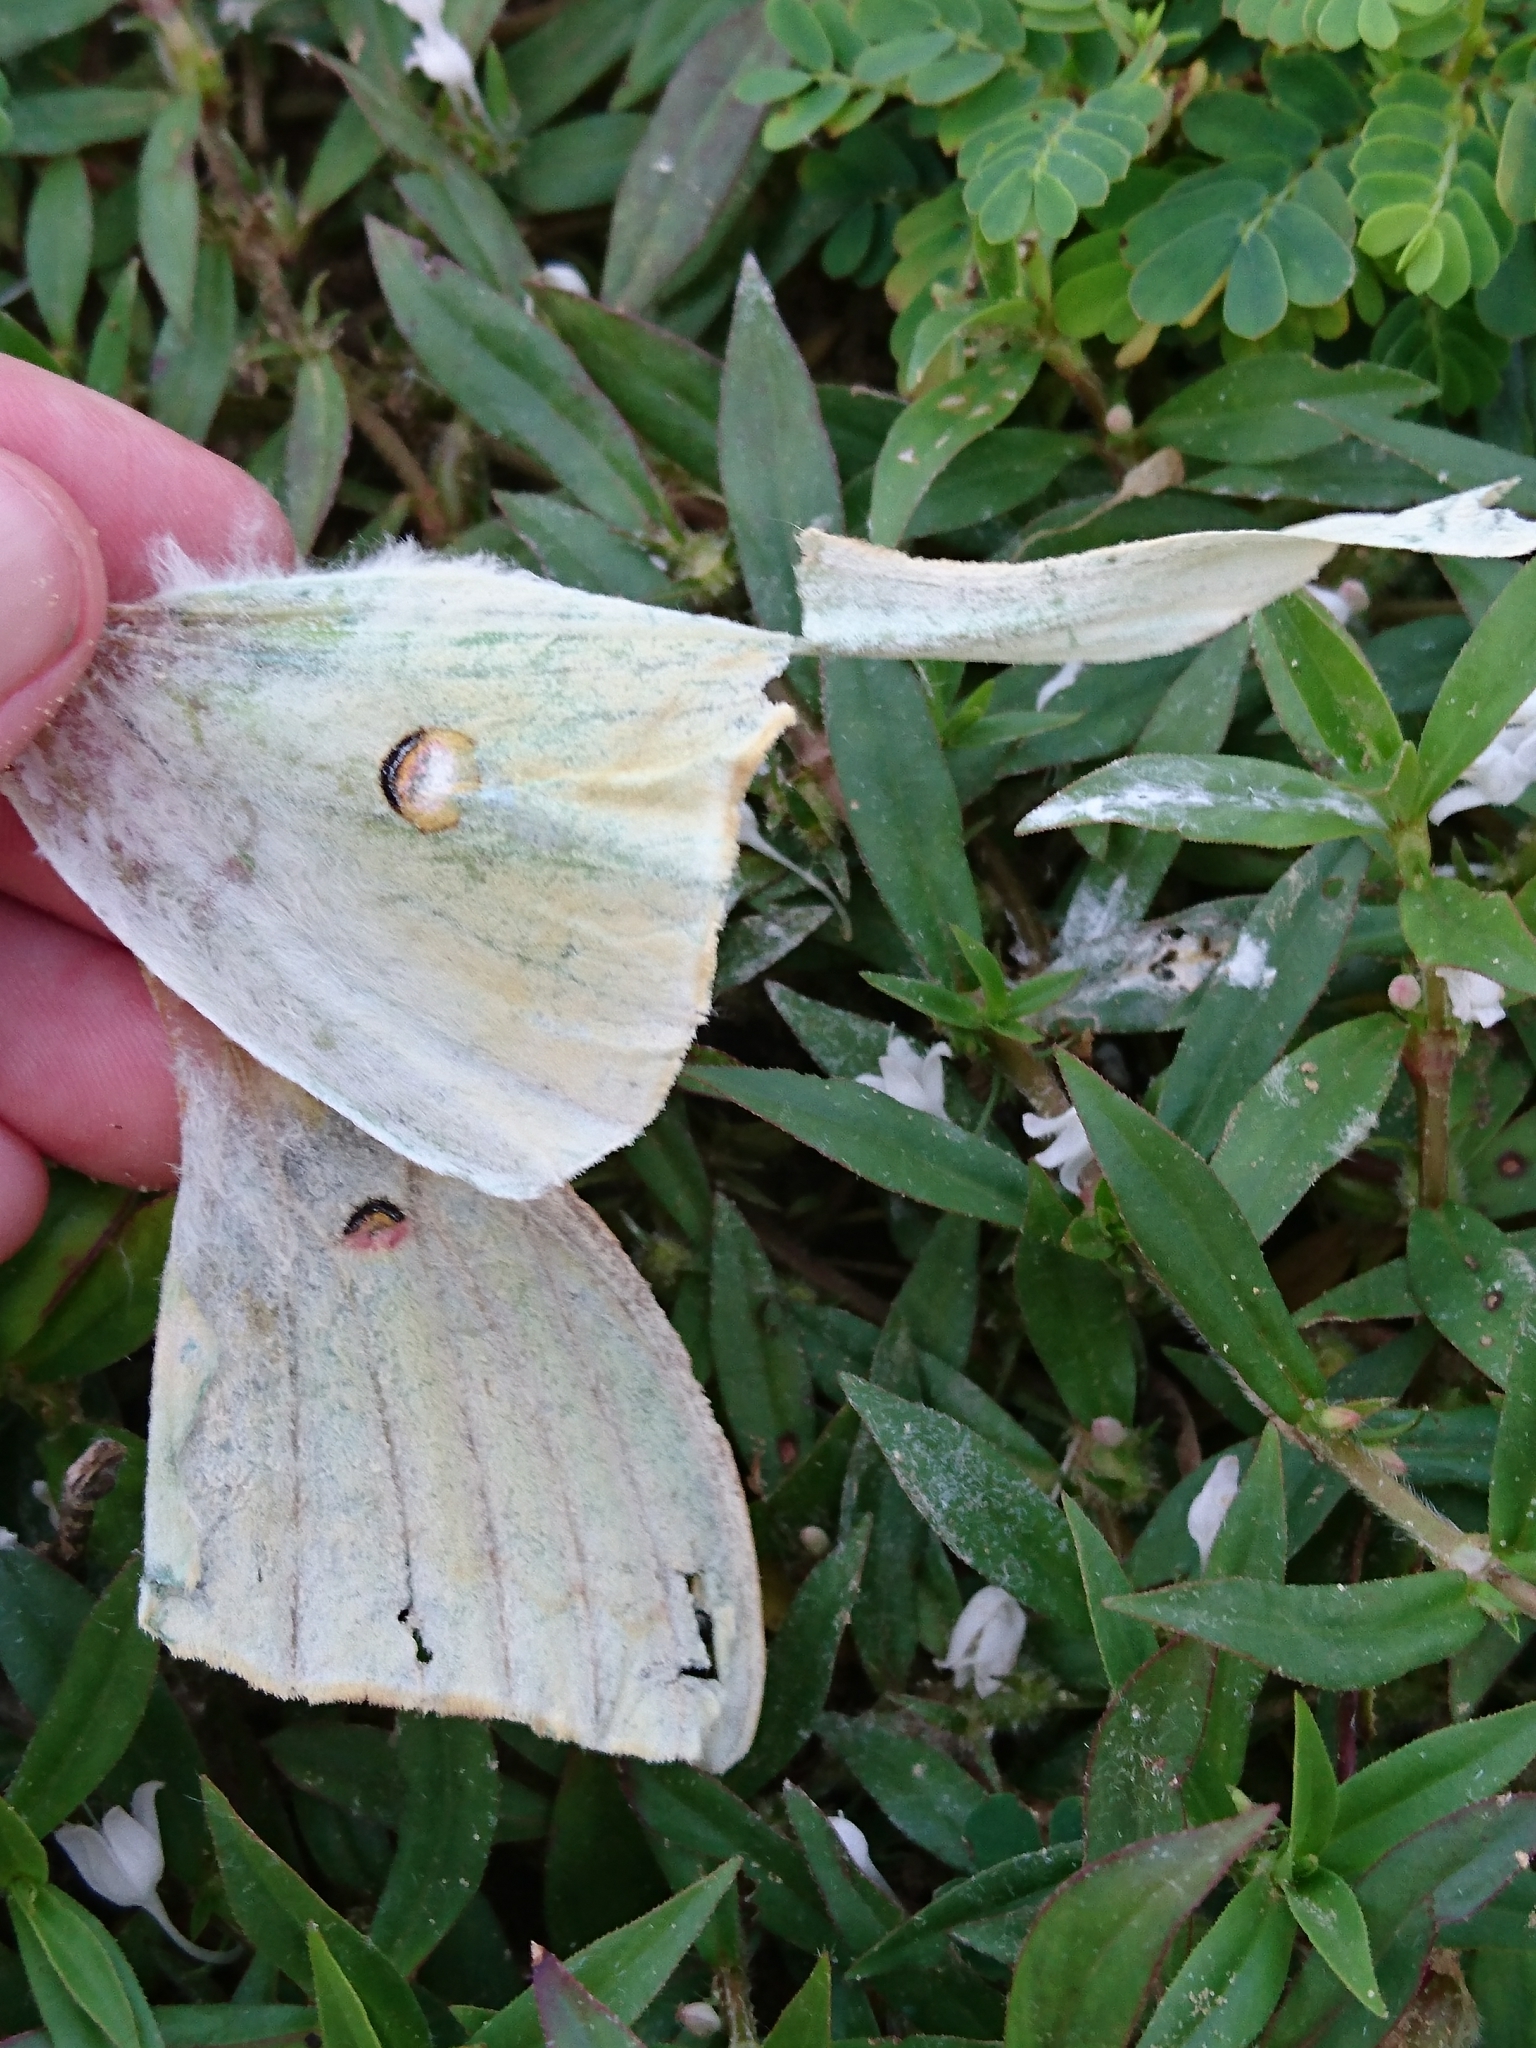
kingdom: Animalia
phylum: Arthropoda
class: Insecta
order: Lepidoptera
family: Saturniidae
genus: Actias
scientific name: Actias luna
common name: Luna moth
